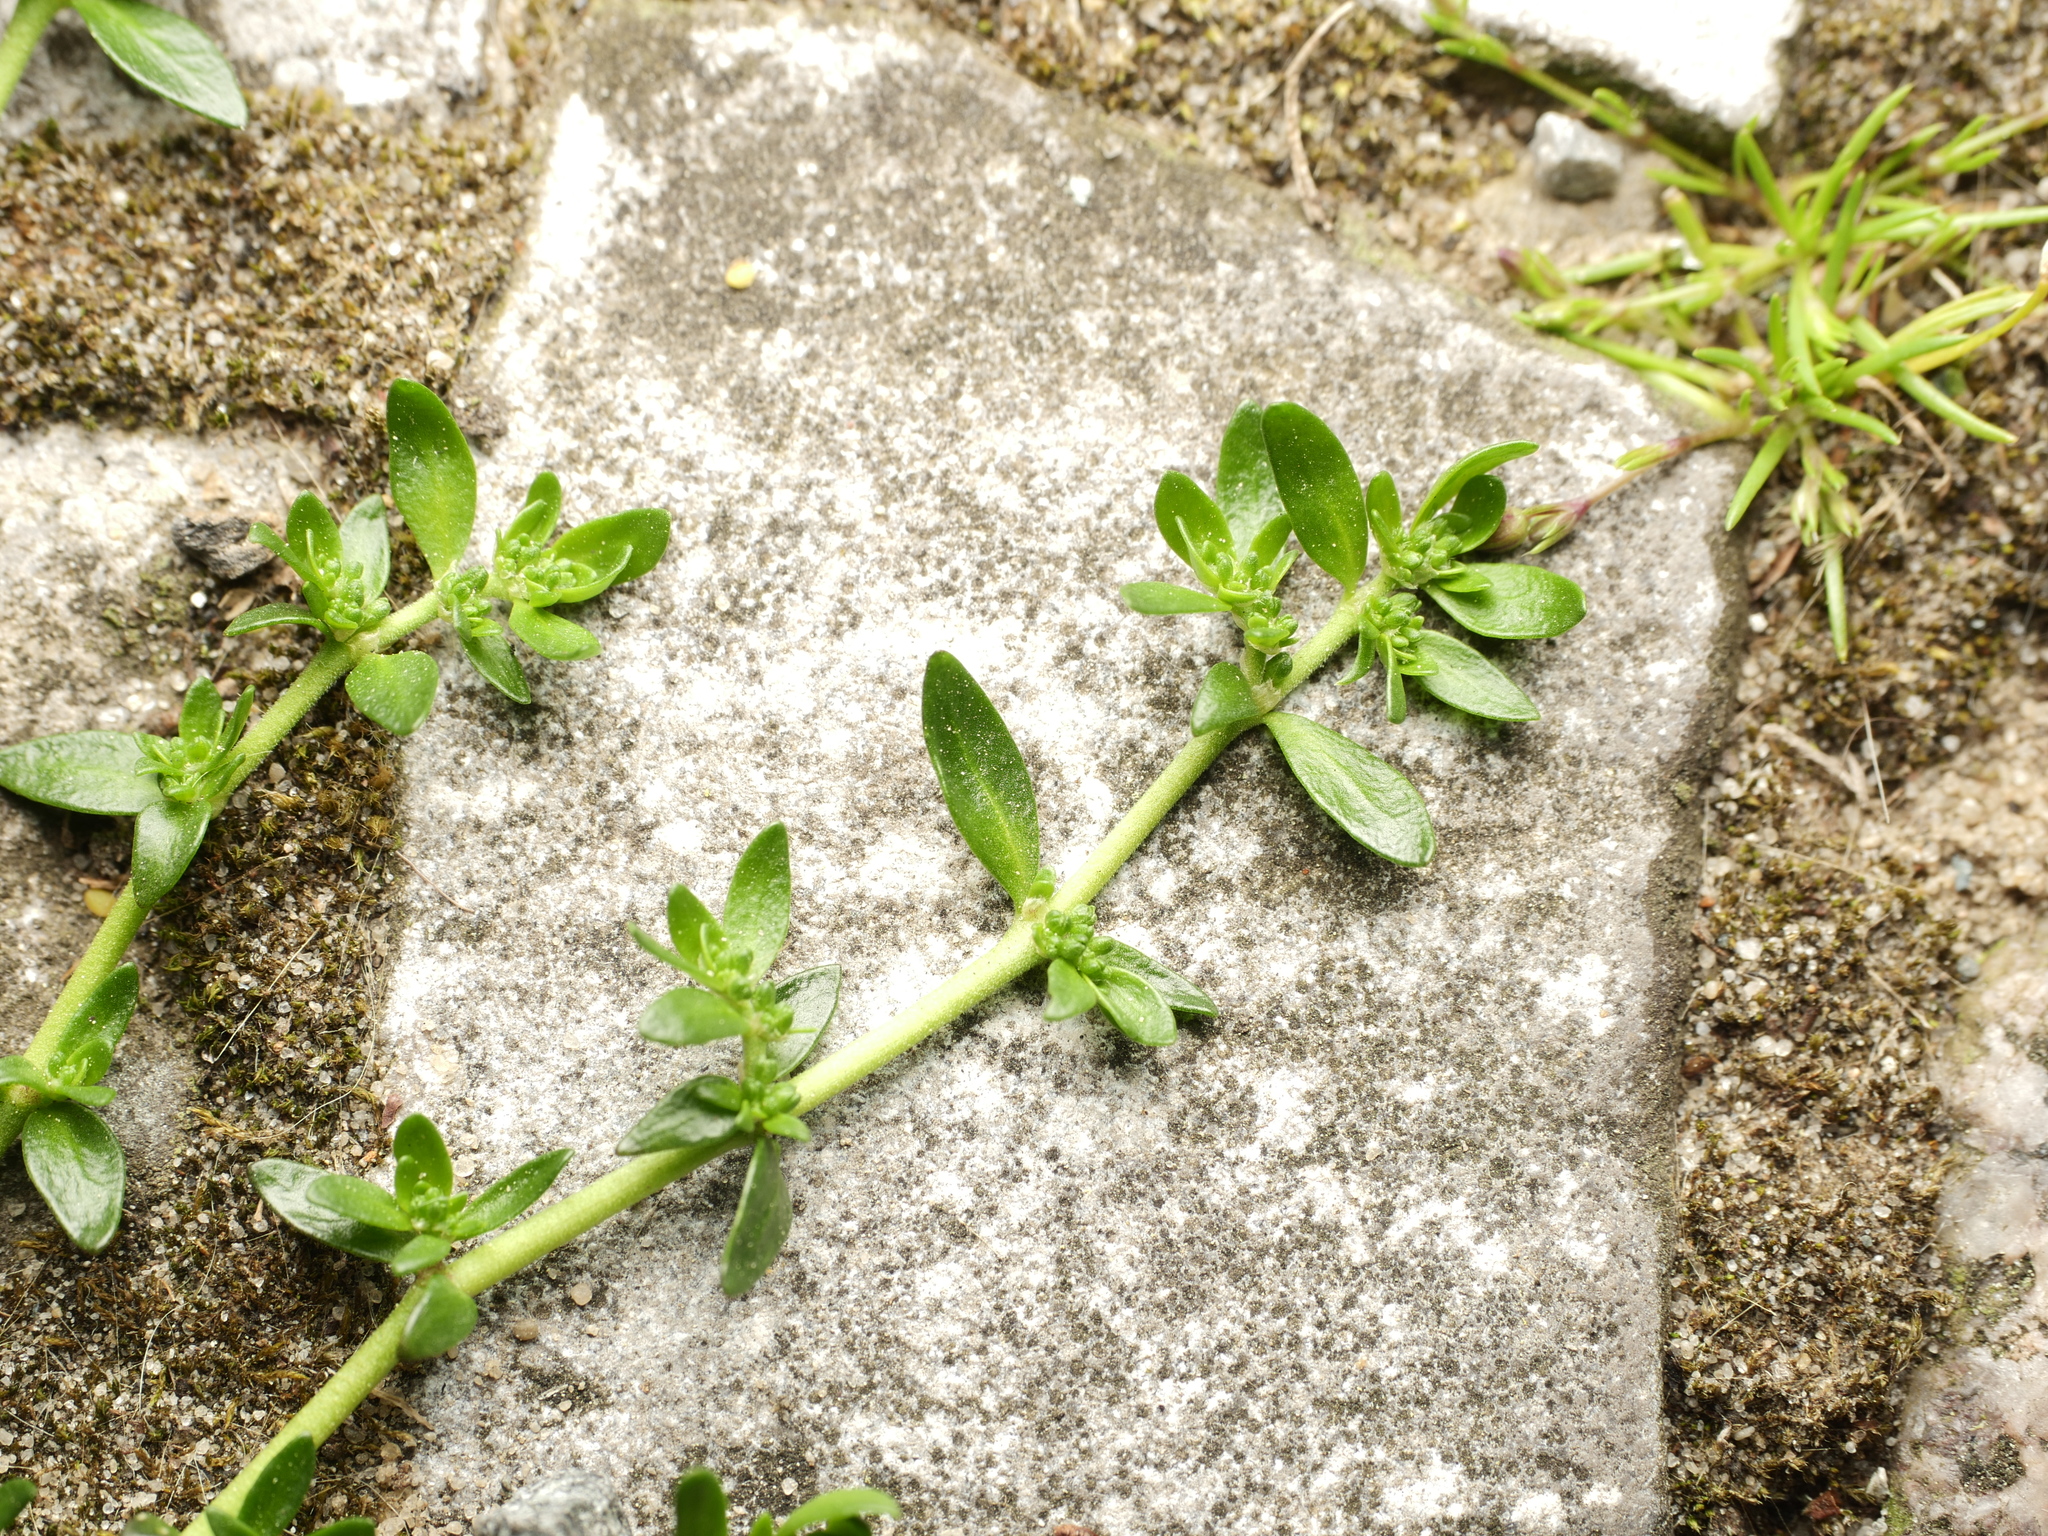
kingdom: Plantae
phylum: Tracheophyta
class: Magnoliopsida
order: Caryophyllales
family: Caryophyllaceae
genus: Herniaria
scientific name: Herniaria glabra
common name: Smooth rupturewort
